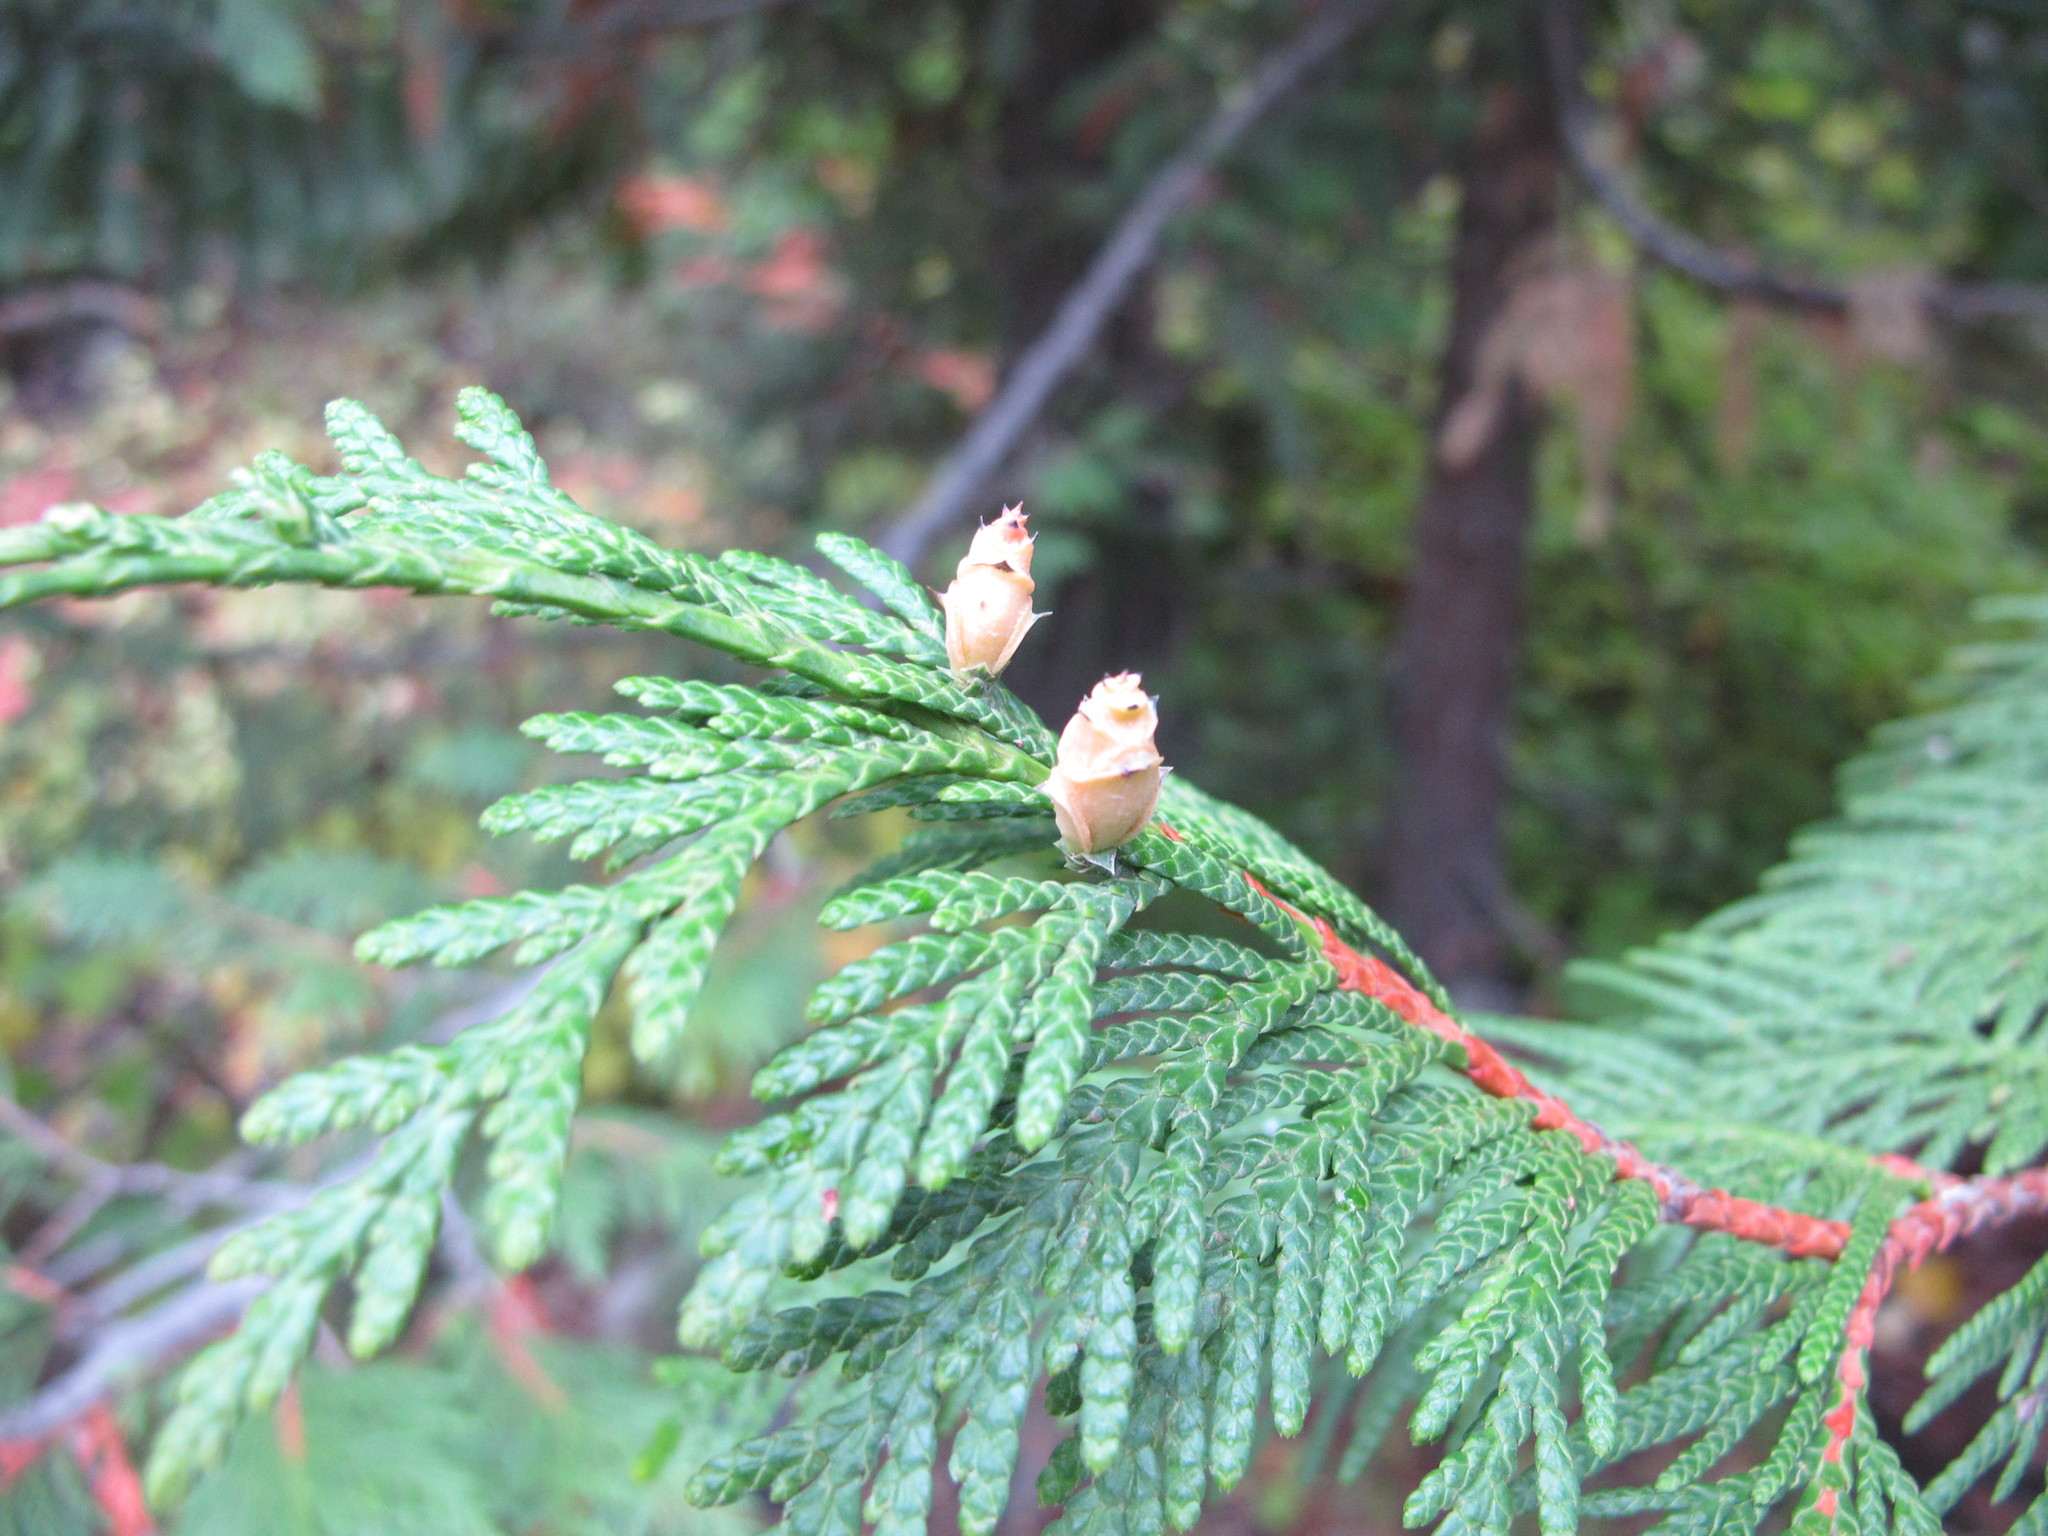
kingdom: Plantae
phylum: Tracheophyta
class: Pinopsida
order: Pinales
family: Cupressaceae
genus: Thuja
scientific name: Thuja plicata
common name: Western red-cedar
